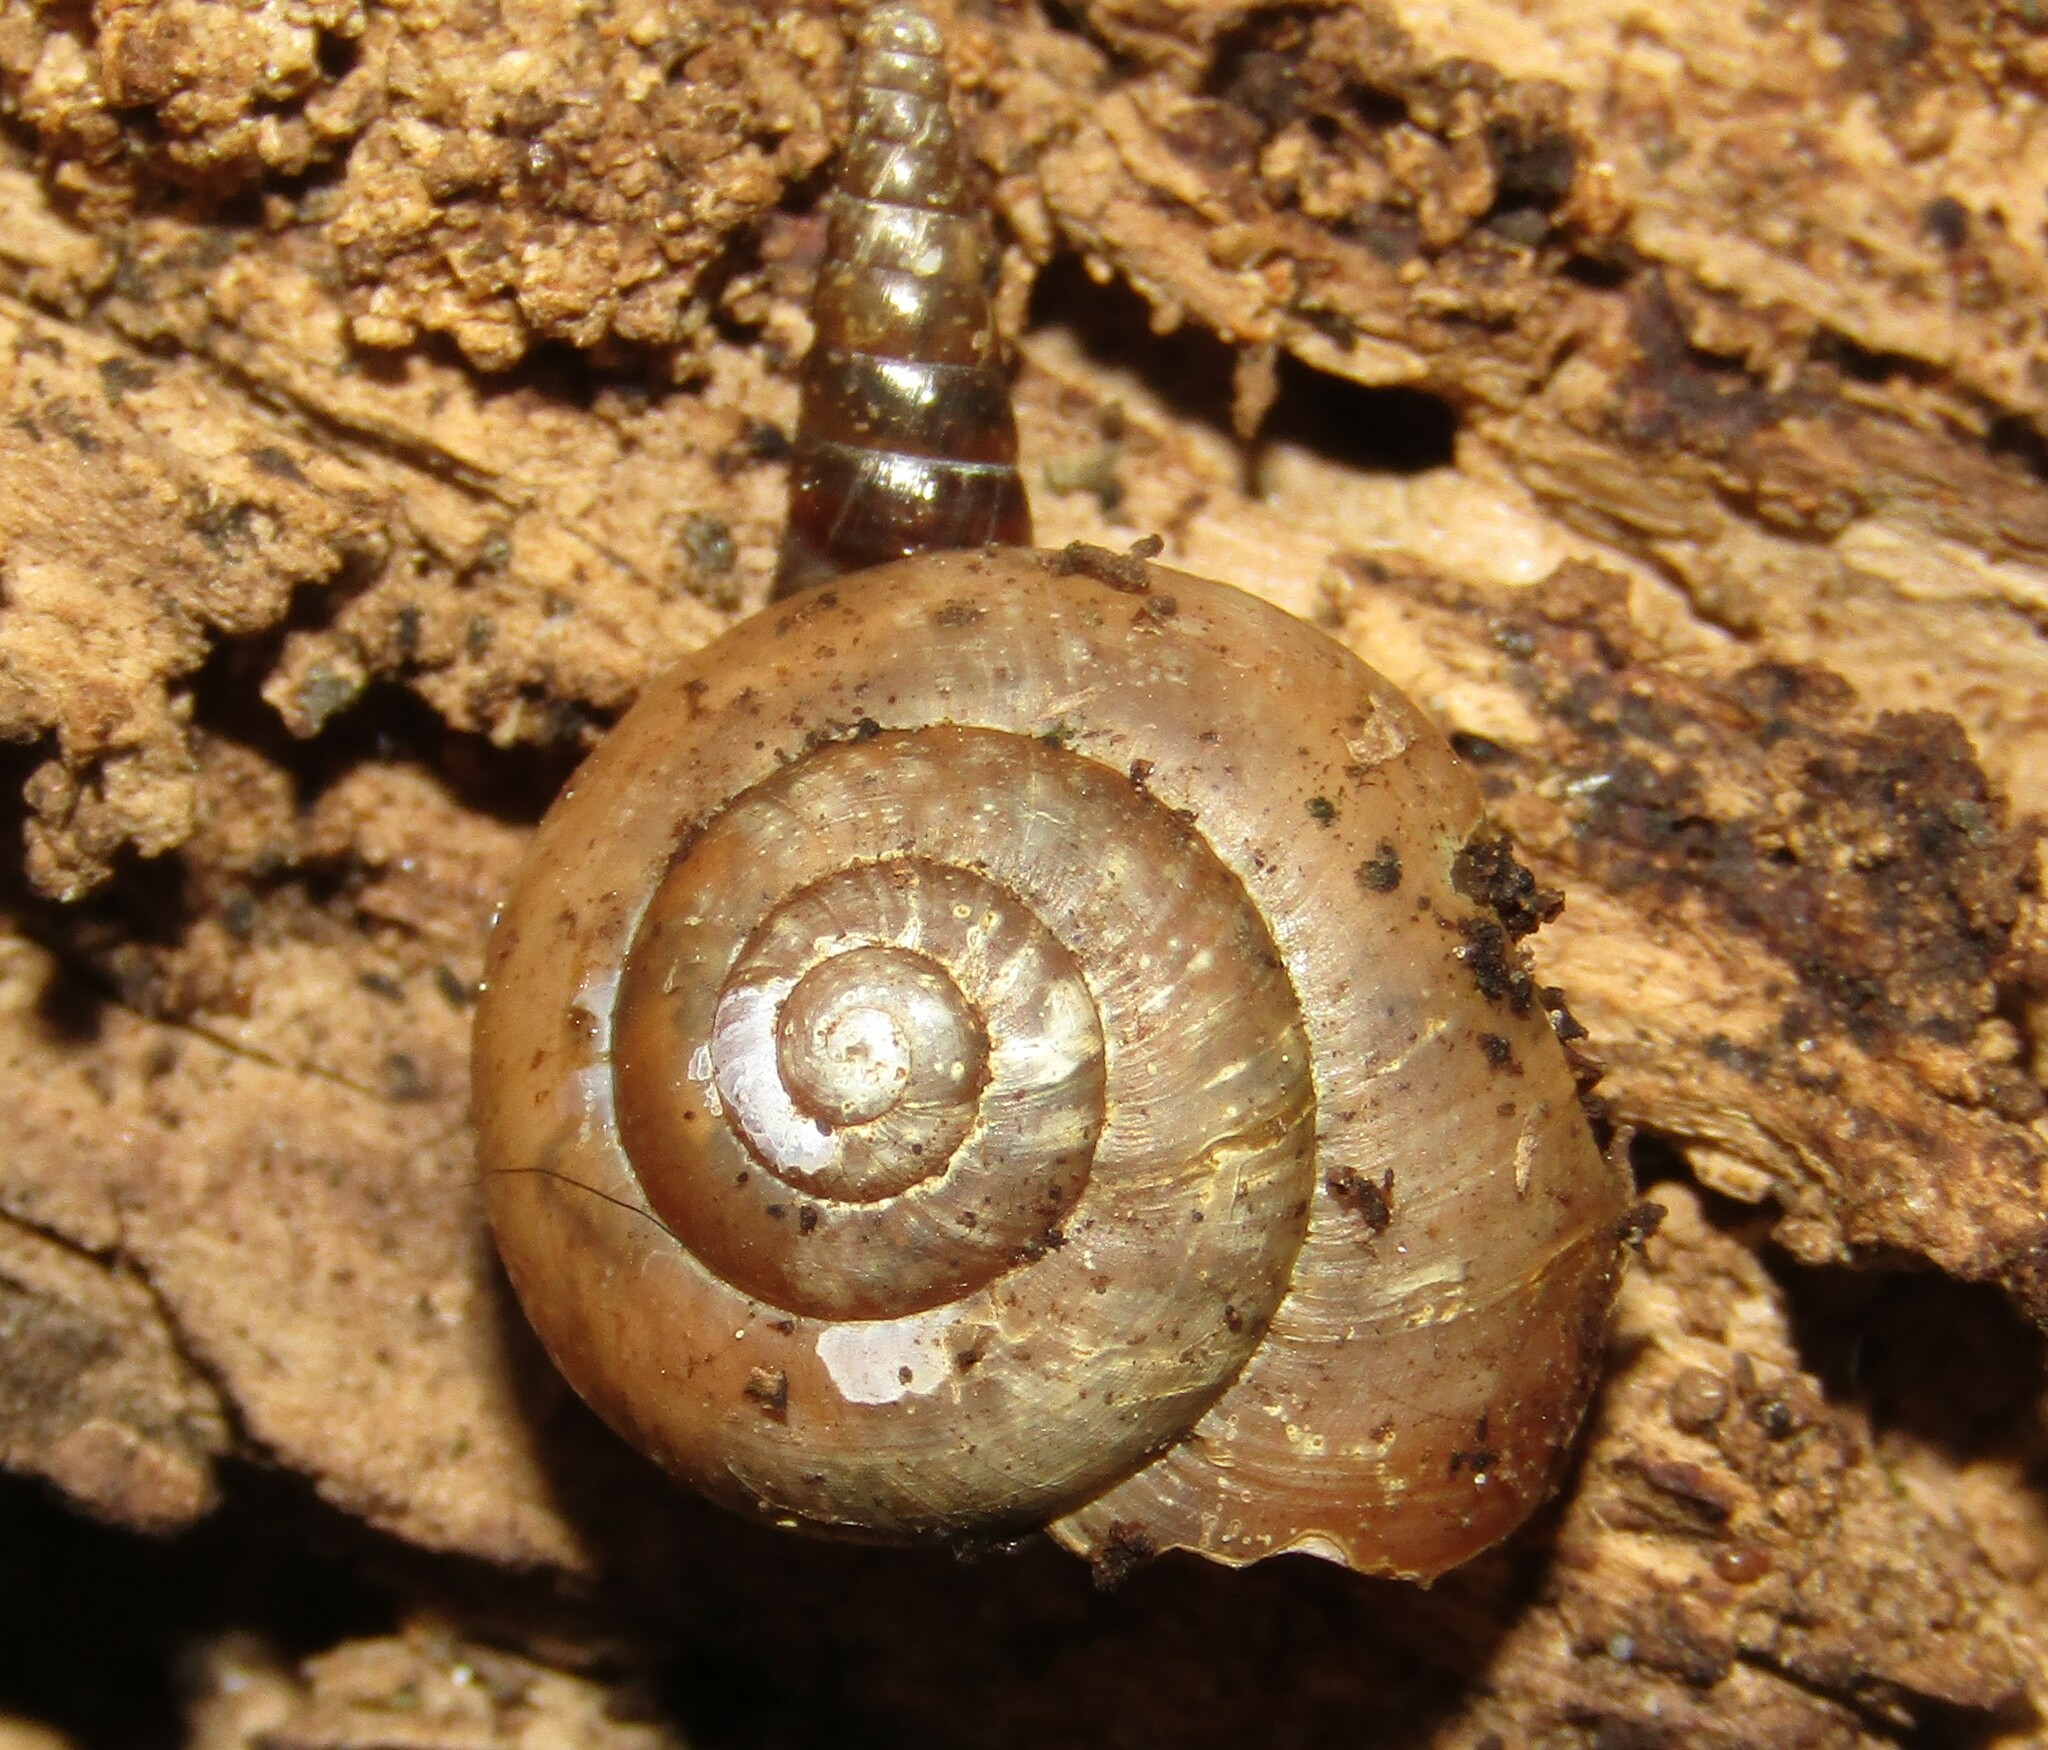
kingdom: Animalia
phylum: Mollusca
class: Gastropoda
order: Stylommatophora
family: Clausiliidae
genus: Cochlodina
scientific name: Cochlodina laminata
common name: Plaited door snail
